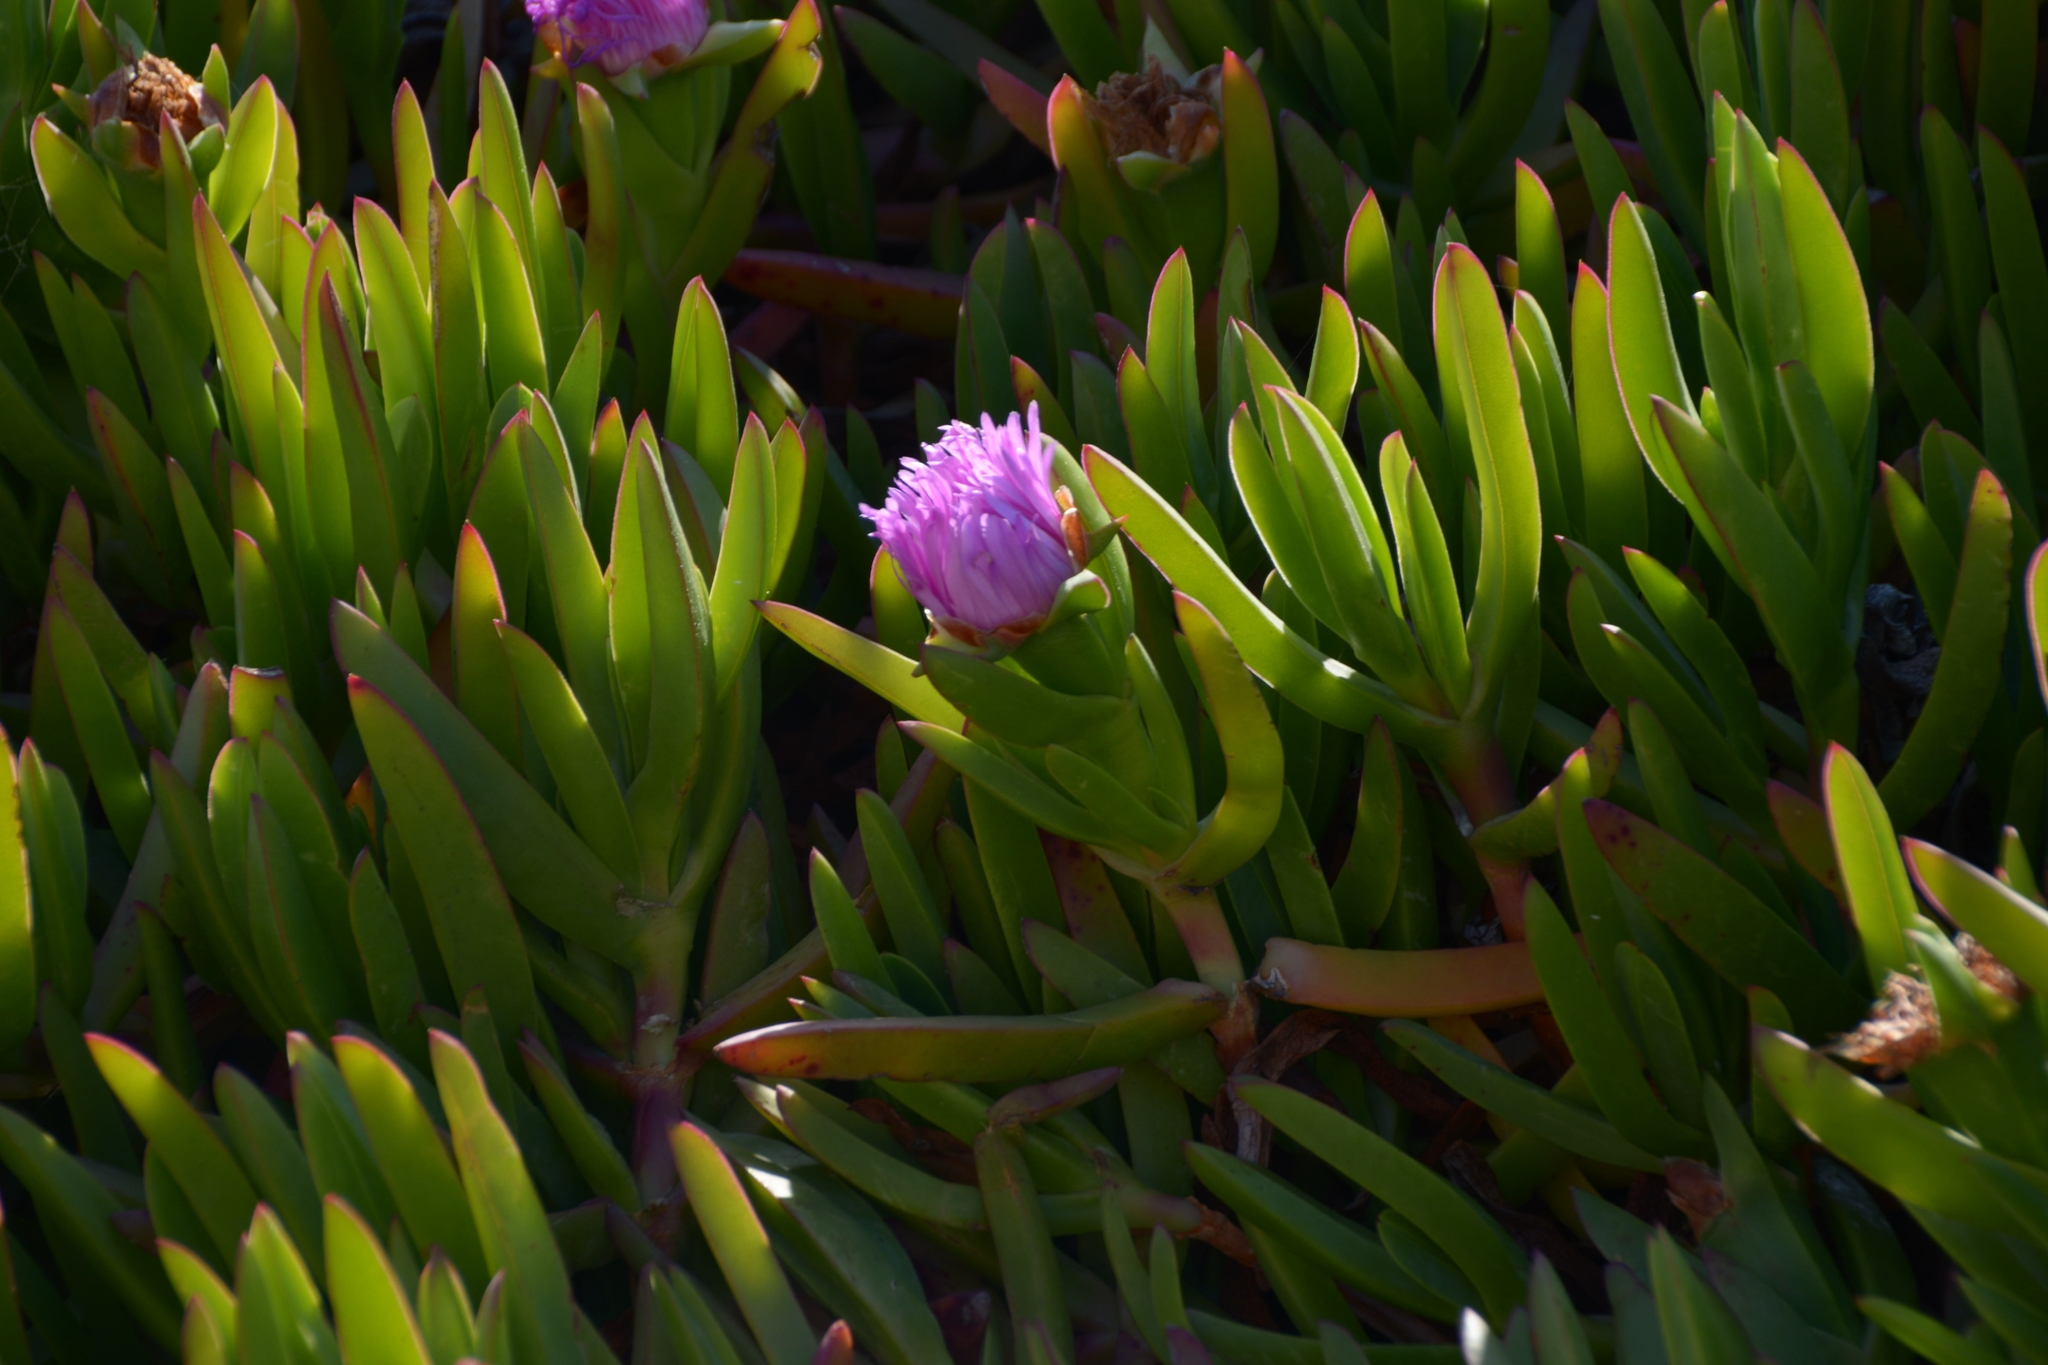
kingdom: Plantae
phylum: Tracheophyta
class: Magnoliopsida
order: Caryophyllales
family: Aizoaceae
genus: Carpobrotus
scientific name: Carpobrotus chilensis
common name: Sea fig
